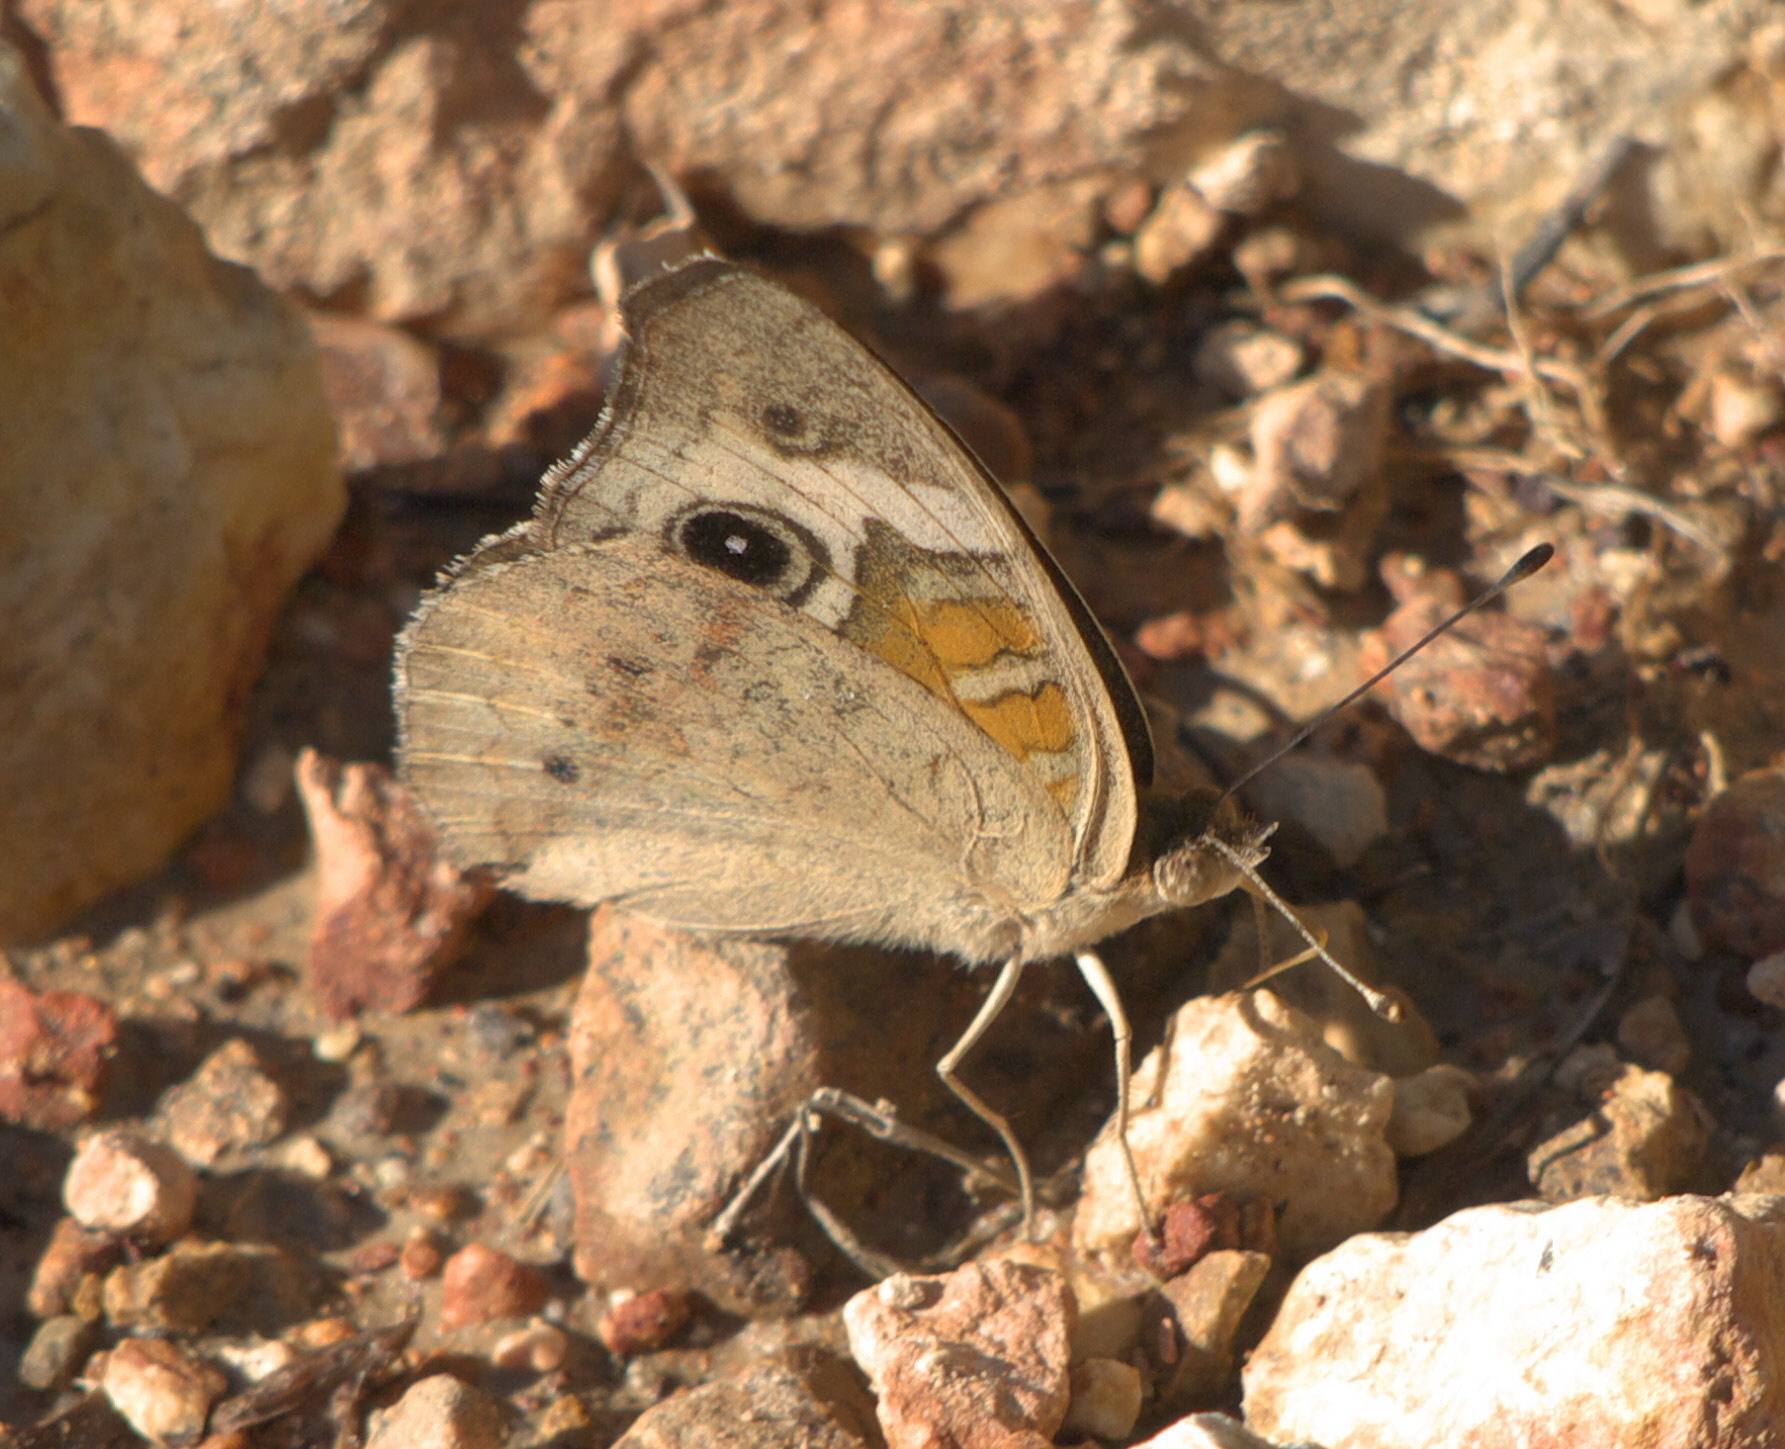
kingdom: Animalia
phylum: Arthropoda
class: Insecta
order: Lepidoptera
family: Nymphalidae
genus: Junonia
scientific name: Junonia coenia
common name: Common buckeye
